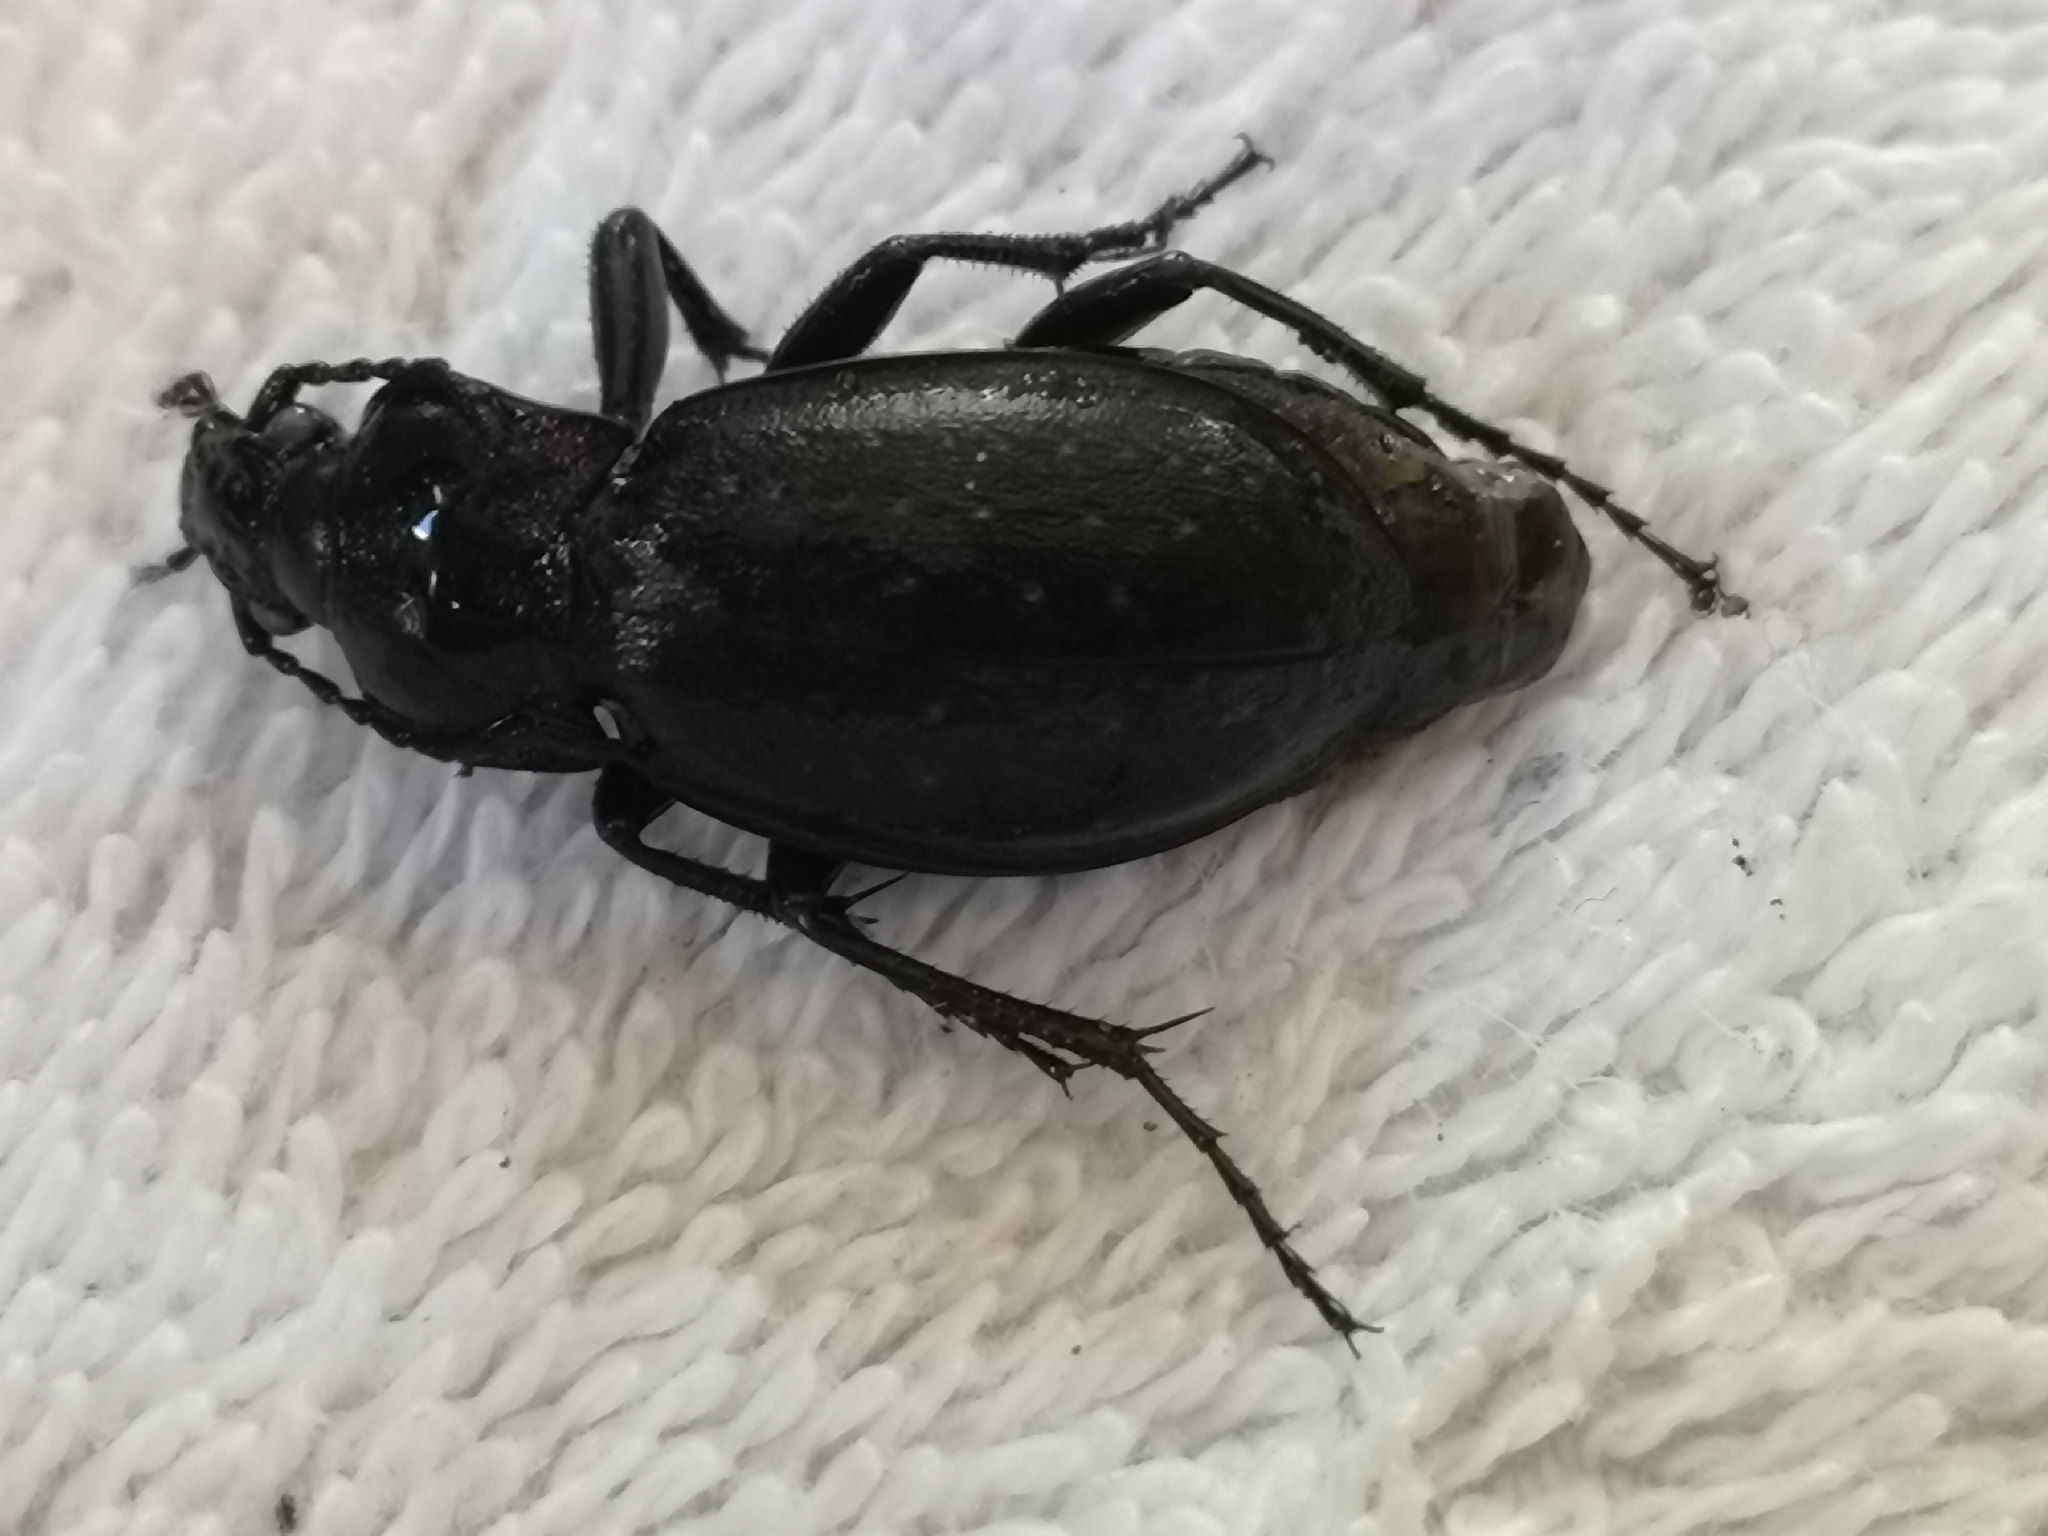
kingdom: Animalia
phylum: Arthropoda
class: Insecta
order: Coleoptera
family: Carabidae
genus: Carabus
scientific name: Carabus nemoralis
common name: European ground beetle
